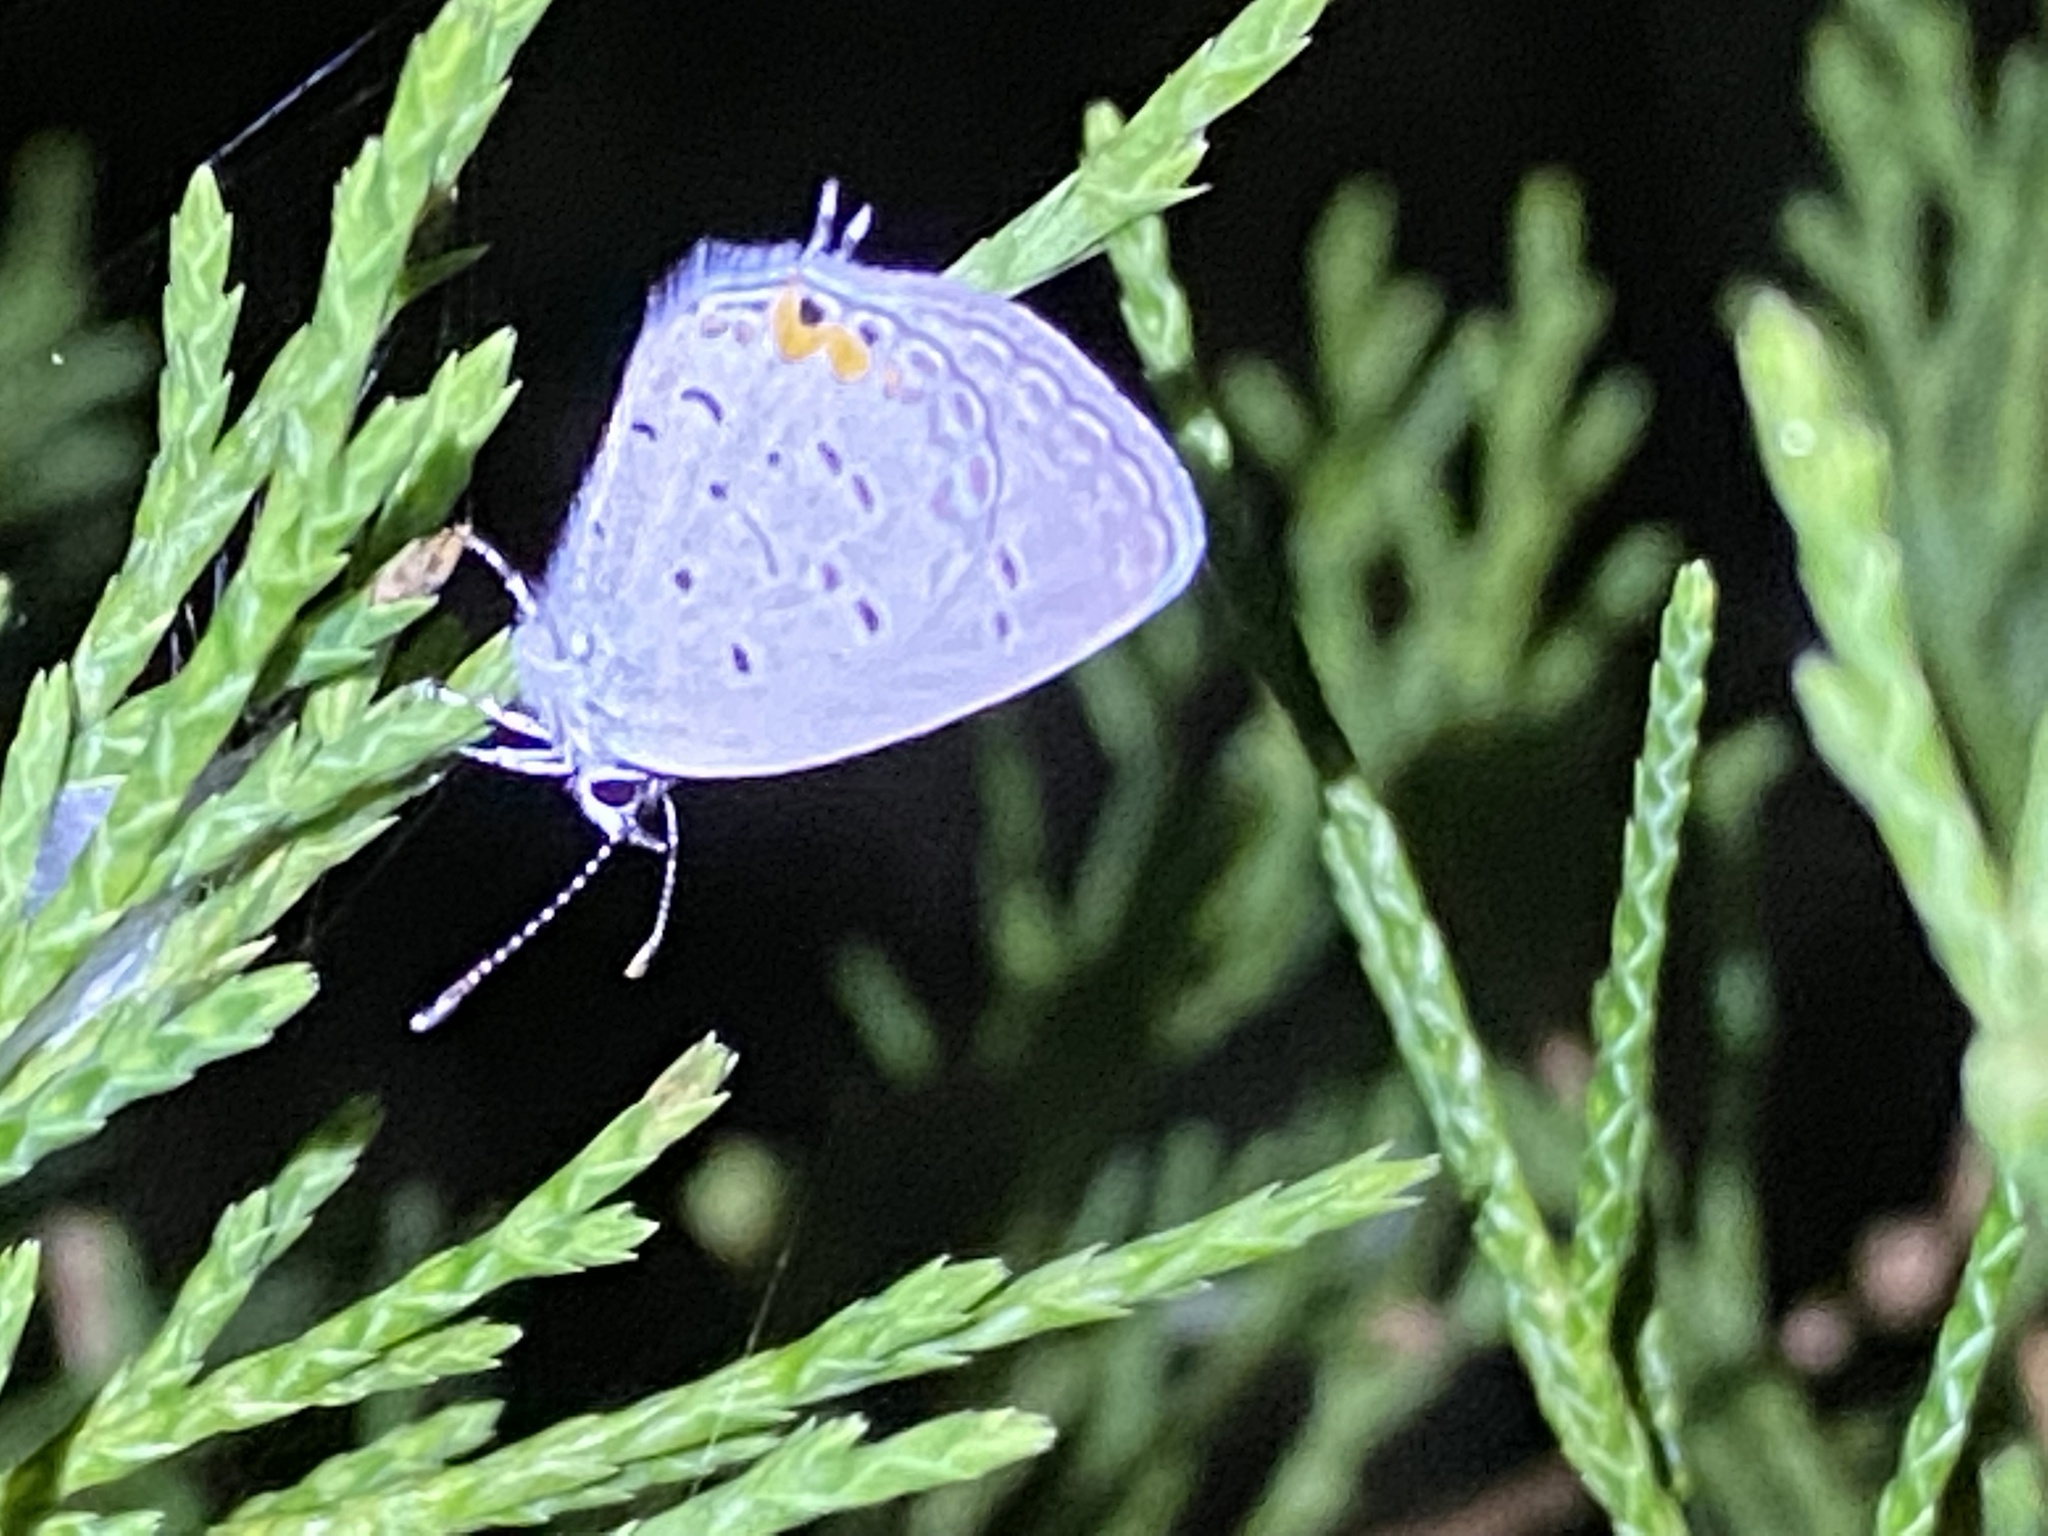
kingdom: Animalia
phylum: Arthropoda
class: Insecta
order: Lepidoptera
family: Lycaenidae
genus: Elkalyce
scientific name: Elkalyce comyntas
